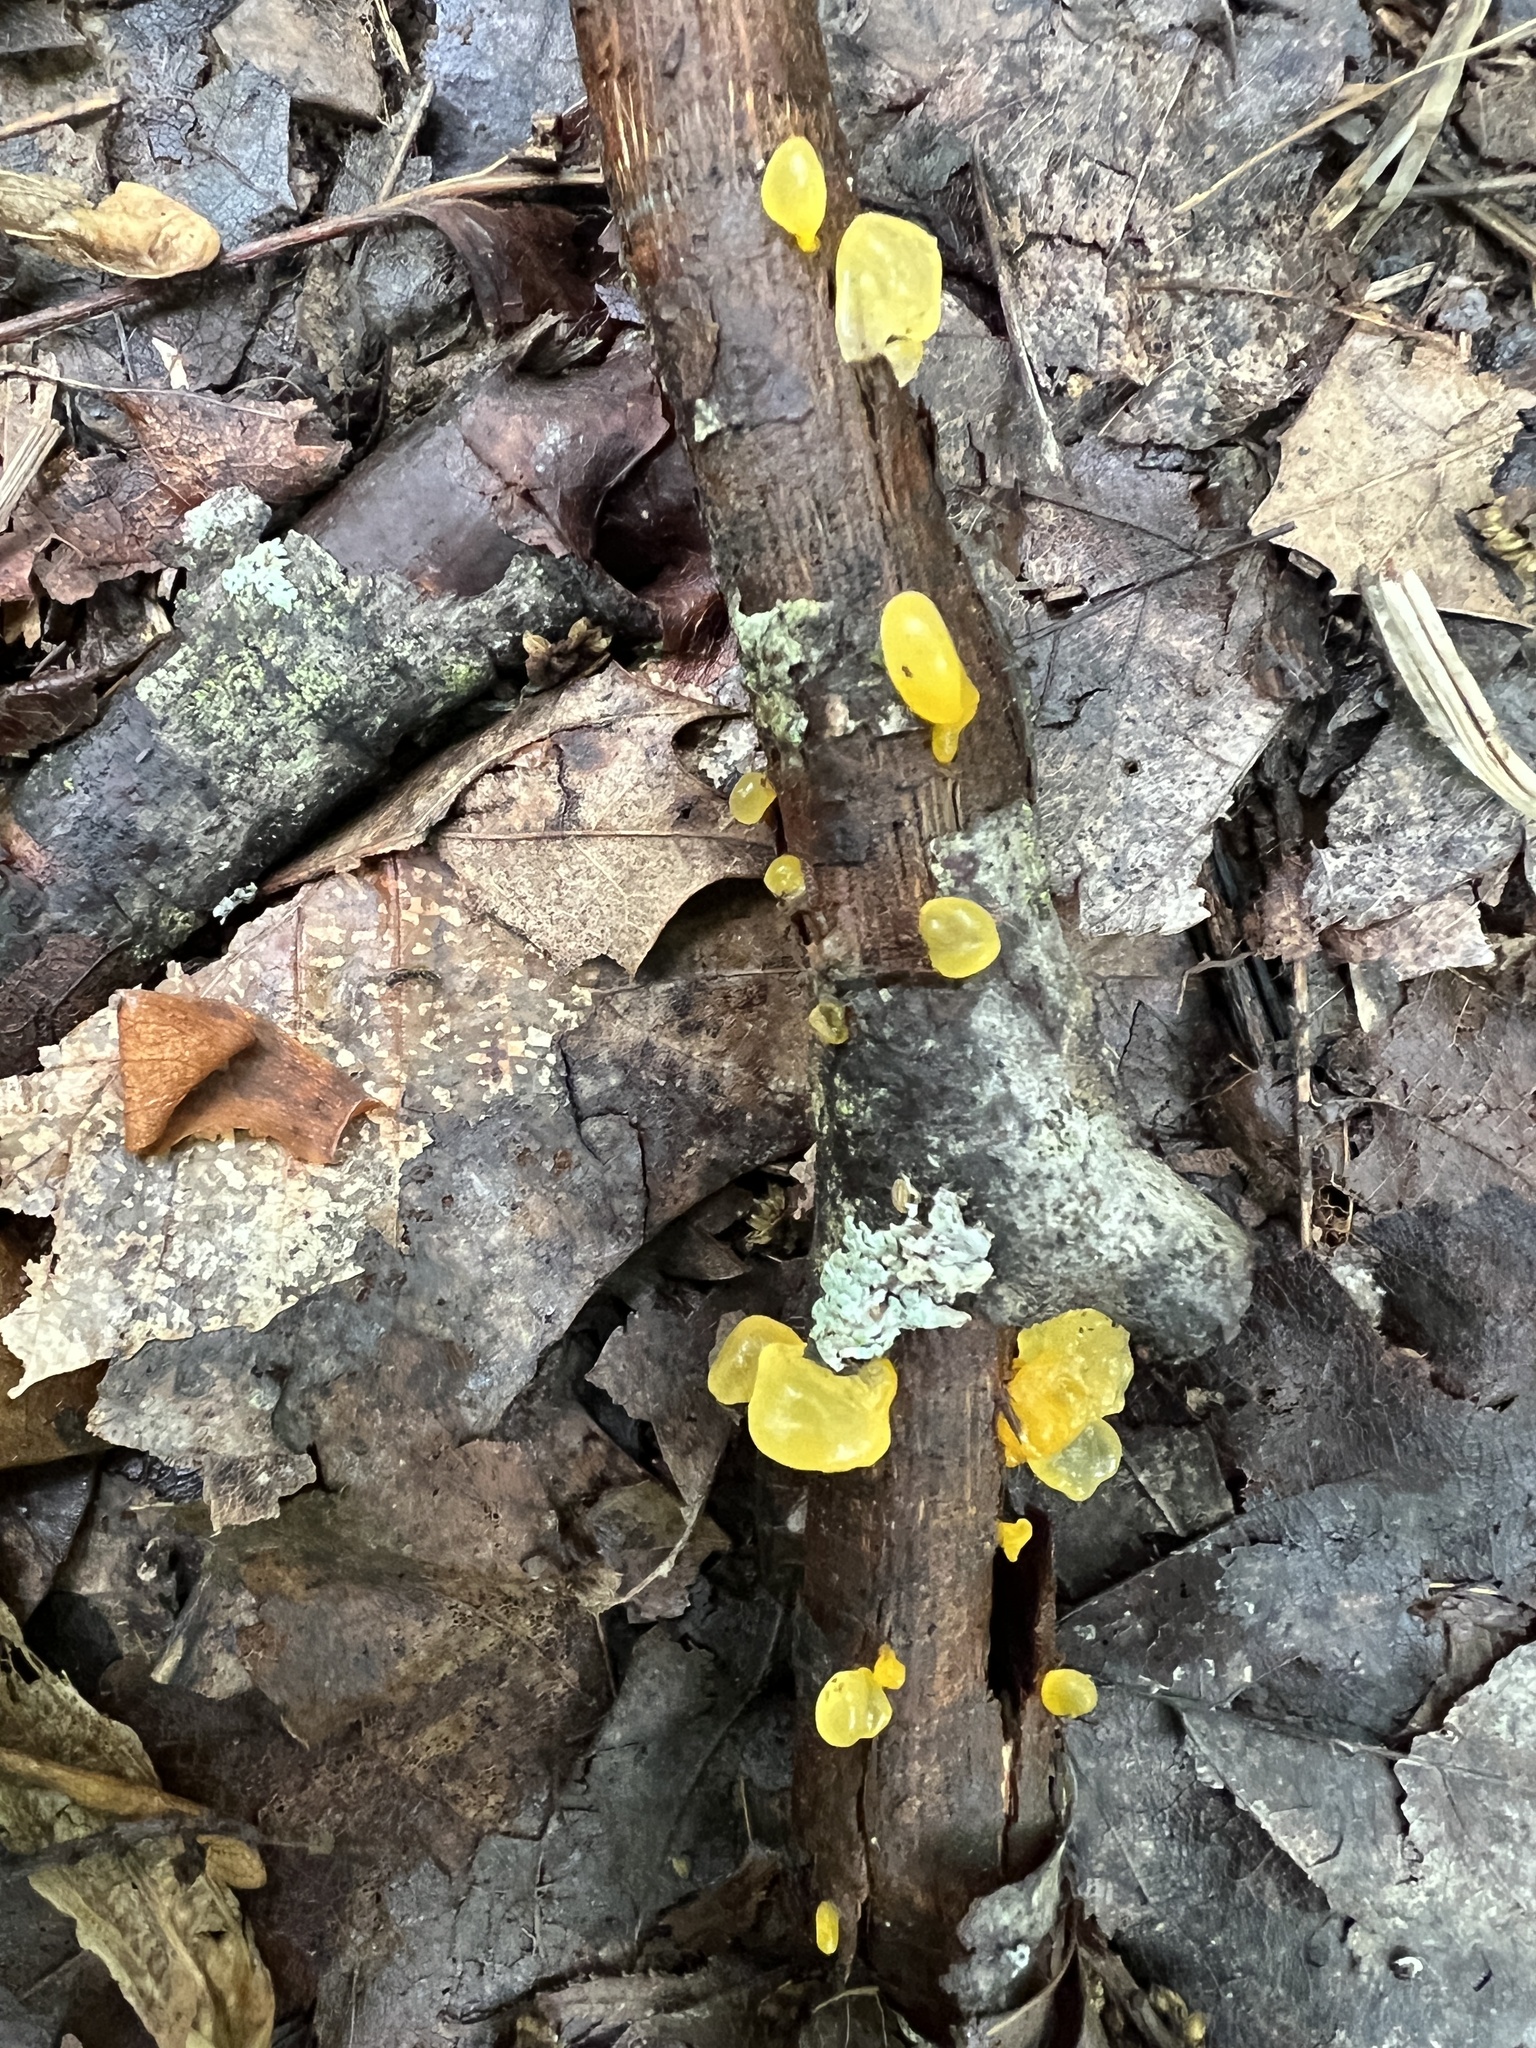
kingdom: Fungi
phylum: Basidiomycota
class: Tremellomycetes
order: Tremellales
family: Tremellaceae
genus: Tremella
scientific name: Tremella mesenterica
